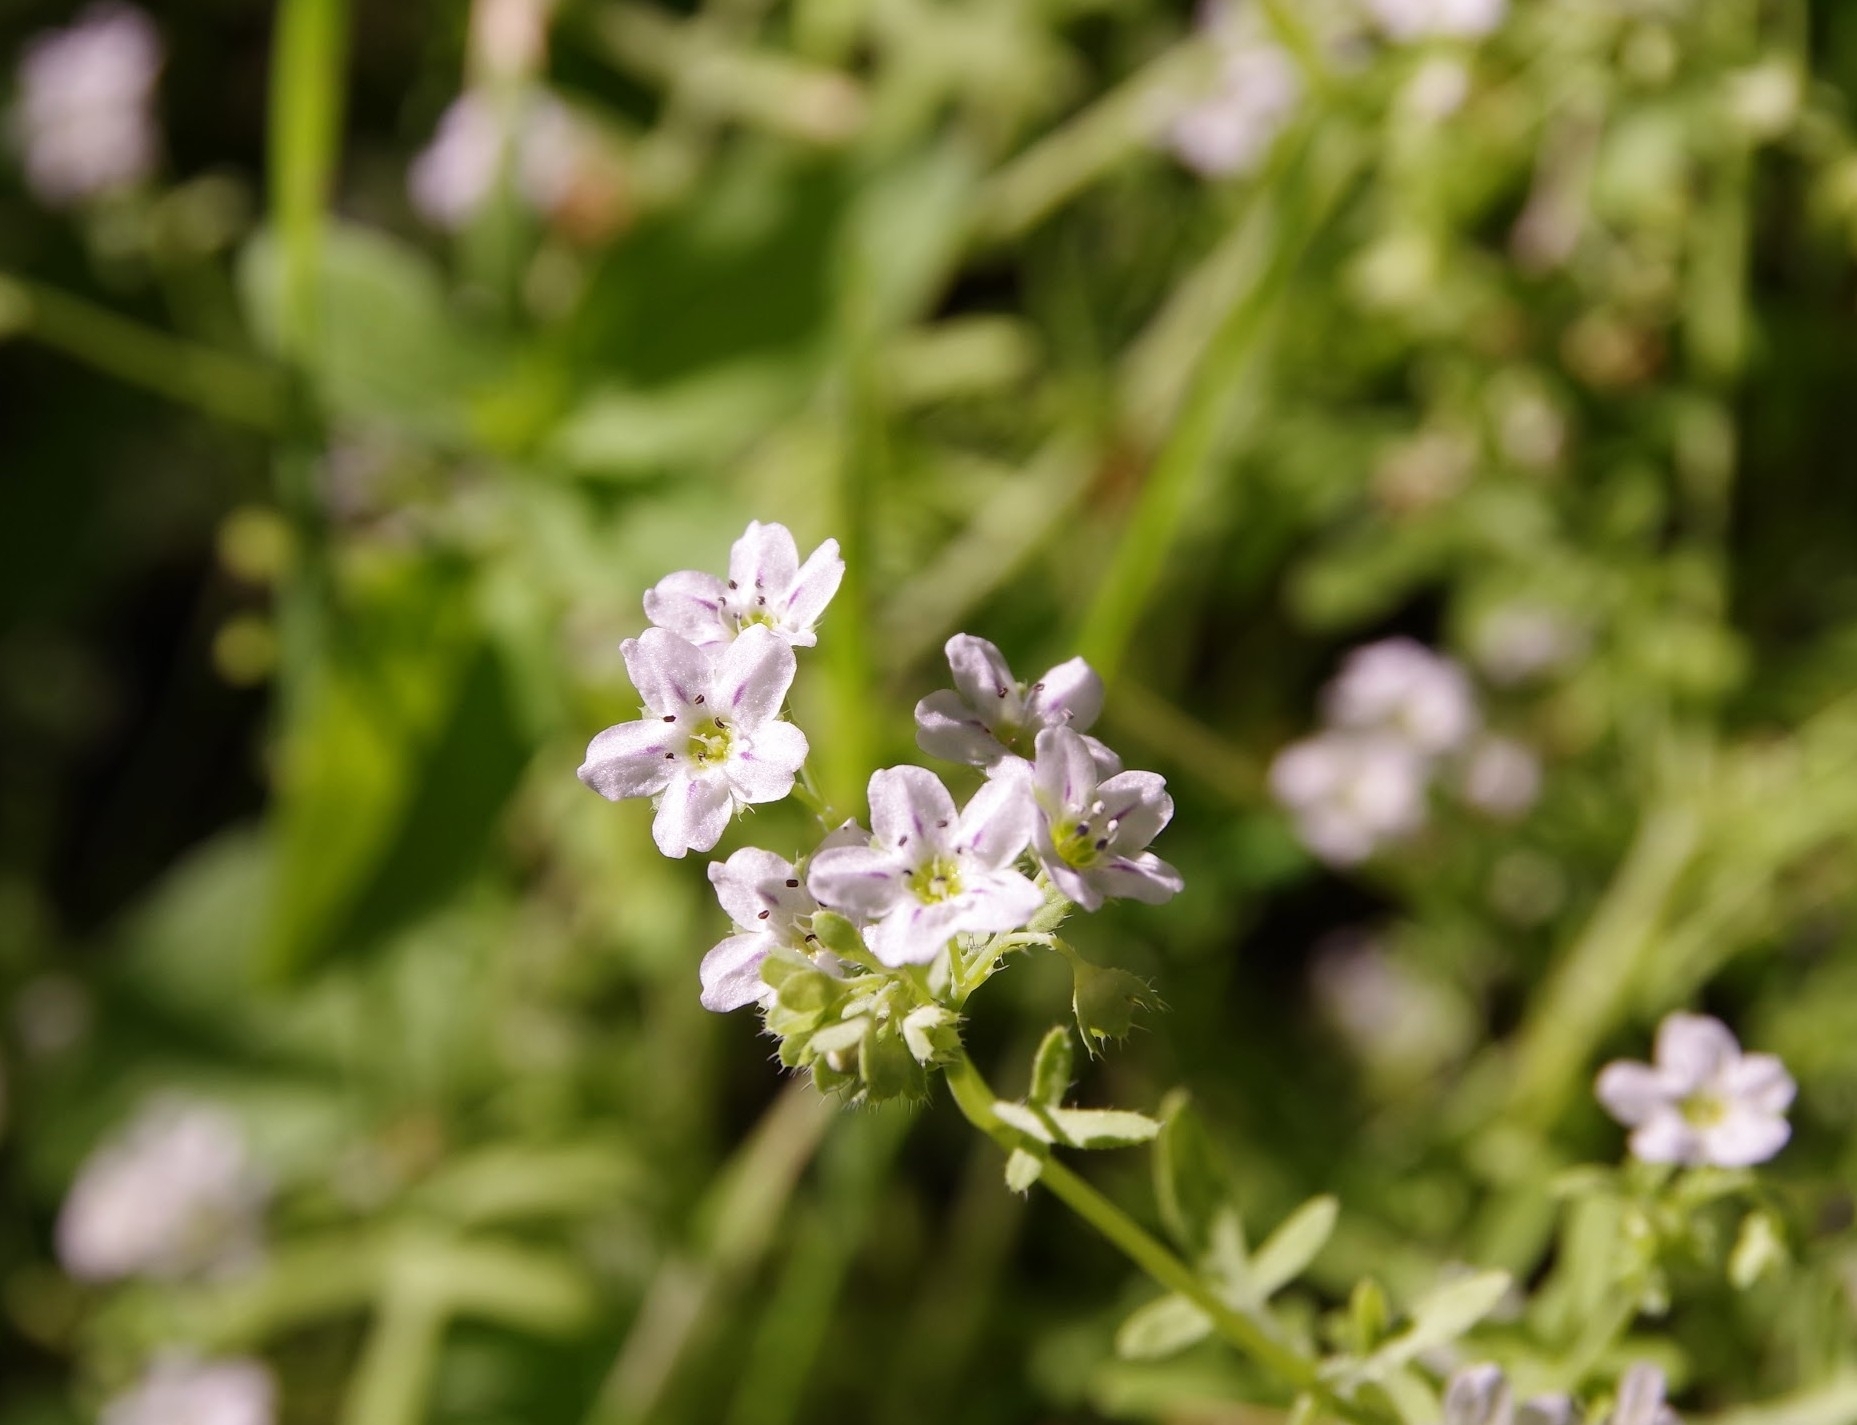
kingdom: Plantae
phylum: Tracheophyta
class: Magnoliopsida
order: Boraginales
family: Hydrophyllaceae
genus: Pholistoma
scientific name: Pholistoma membranaceum
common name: White fiesta-flower
